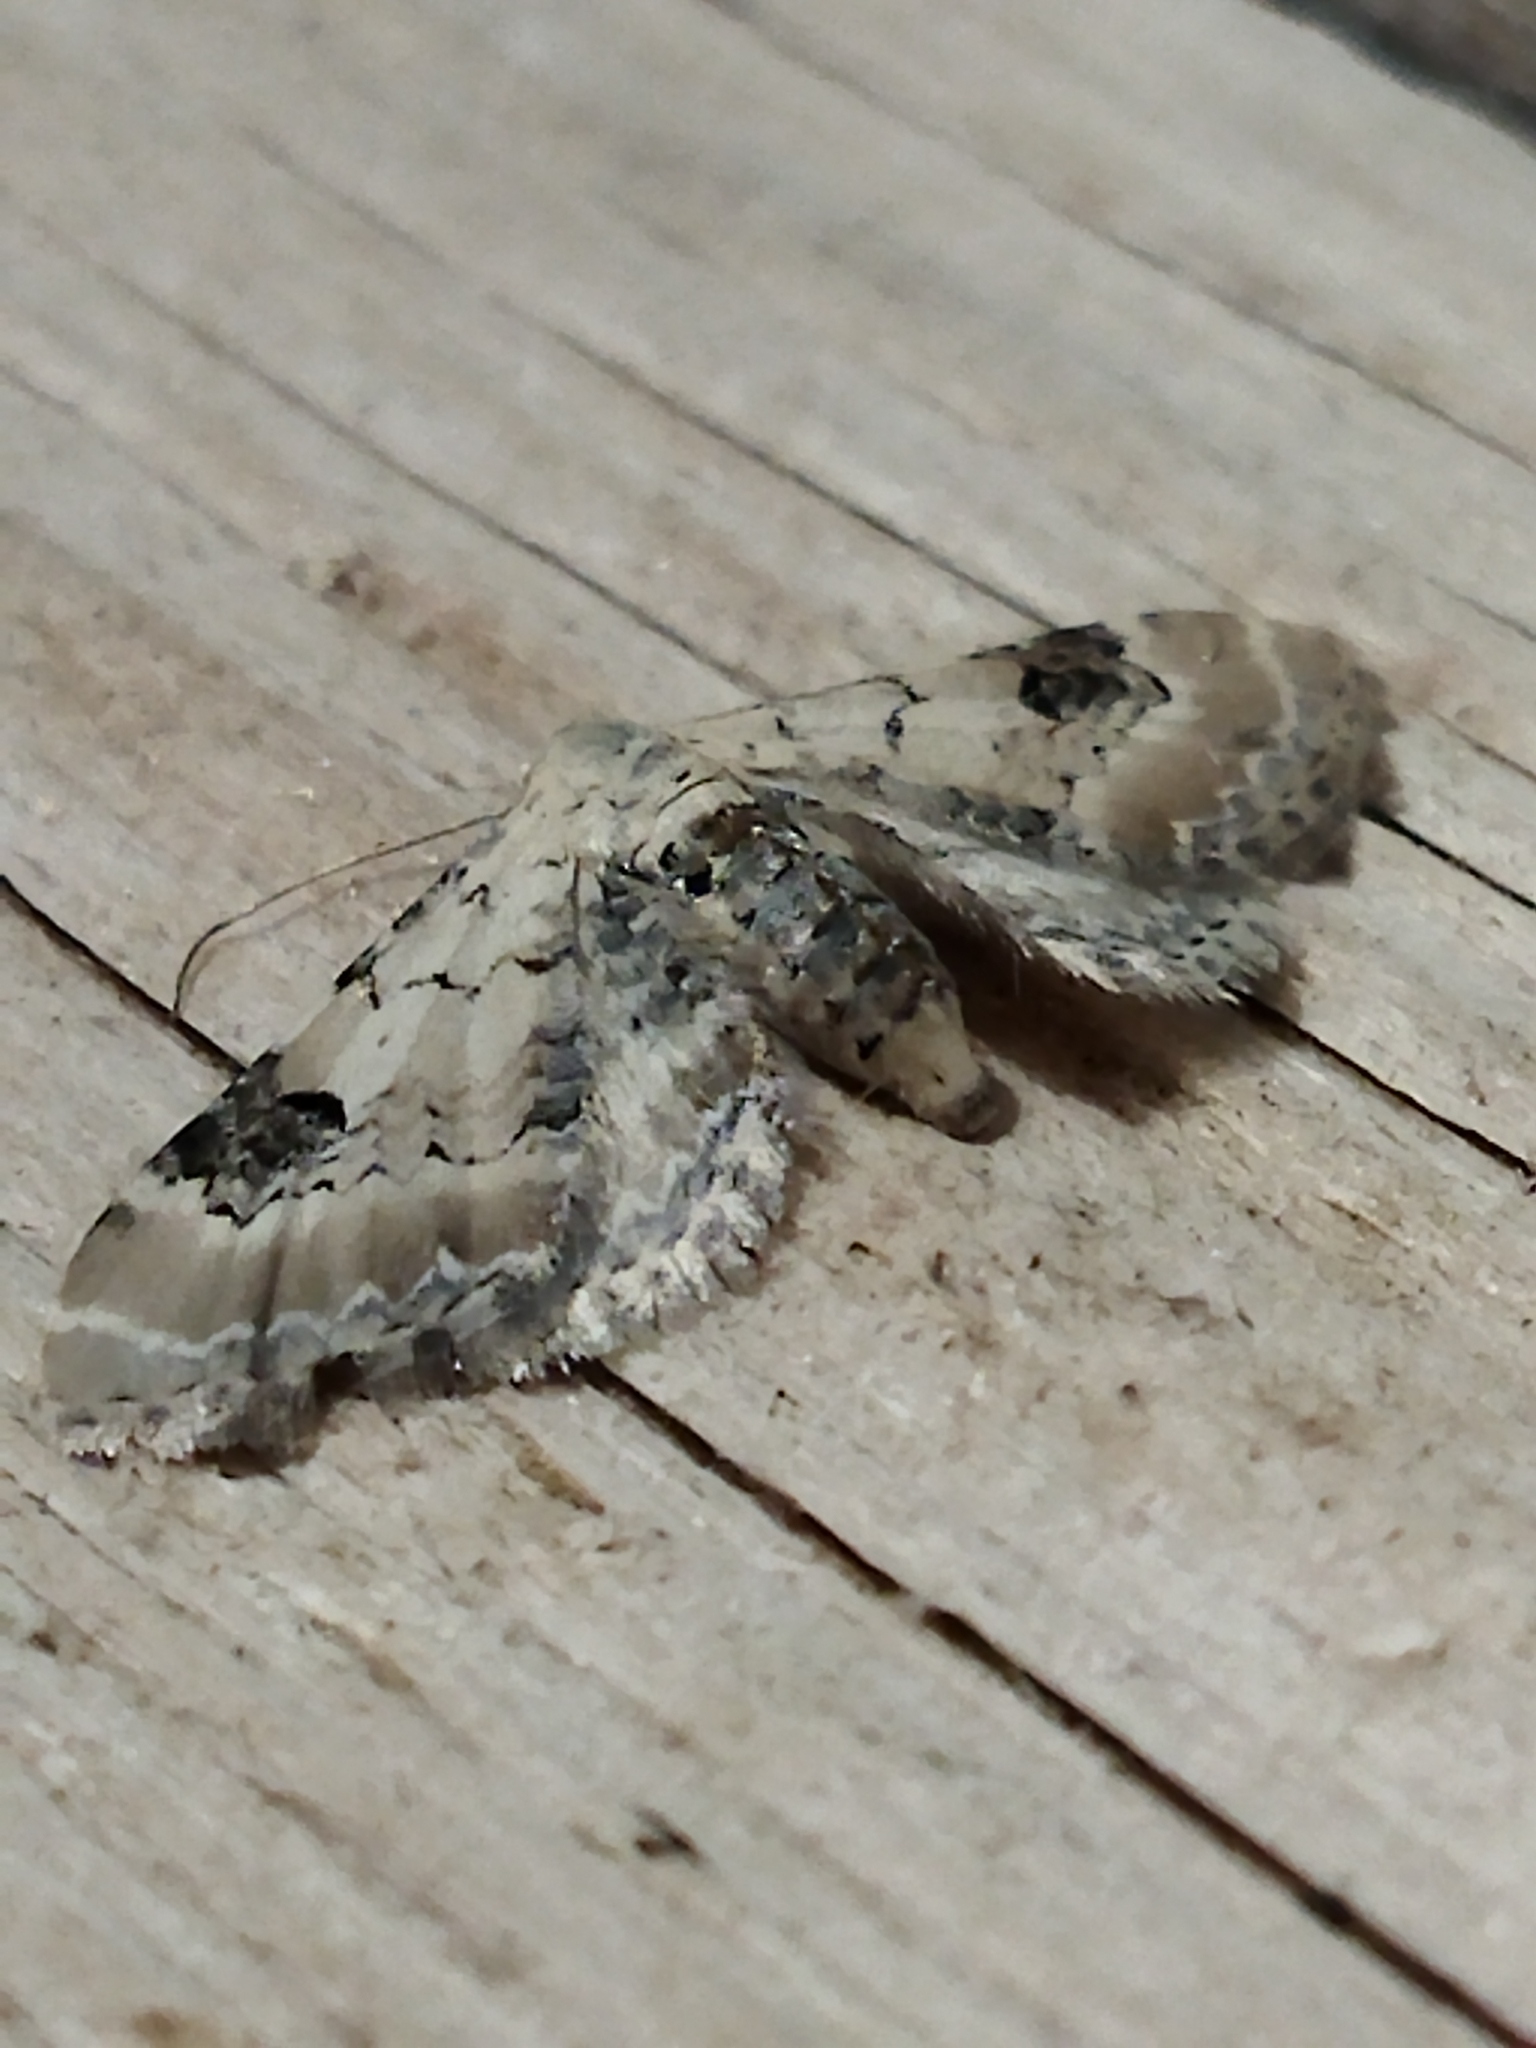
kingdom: Animalia
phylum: Arthropoda
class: Insecta
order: Lepidoptera
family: Geometridae
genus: Eupithecia
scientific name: Eupithecia centaureata
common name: Lime-speck pug
